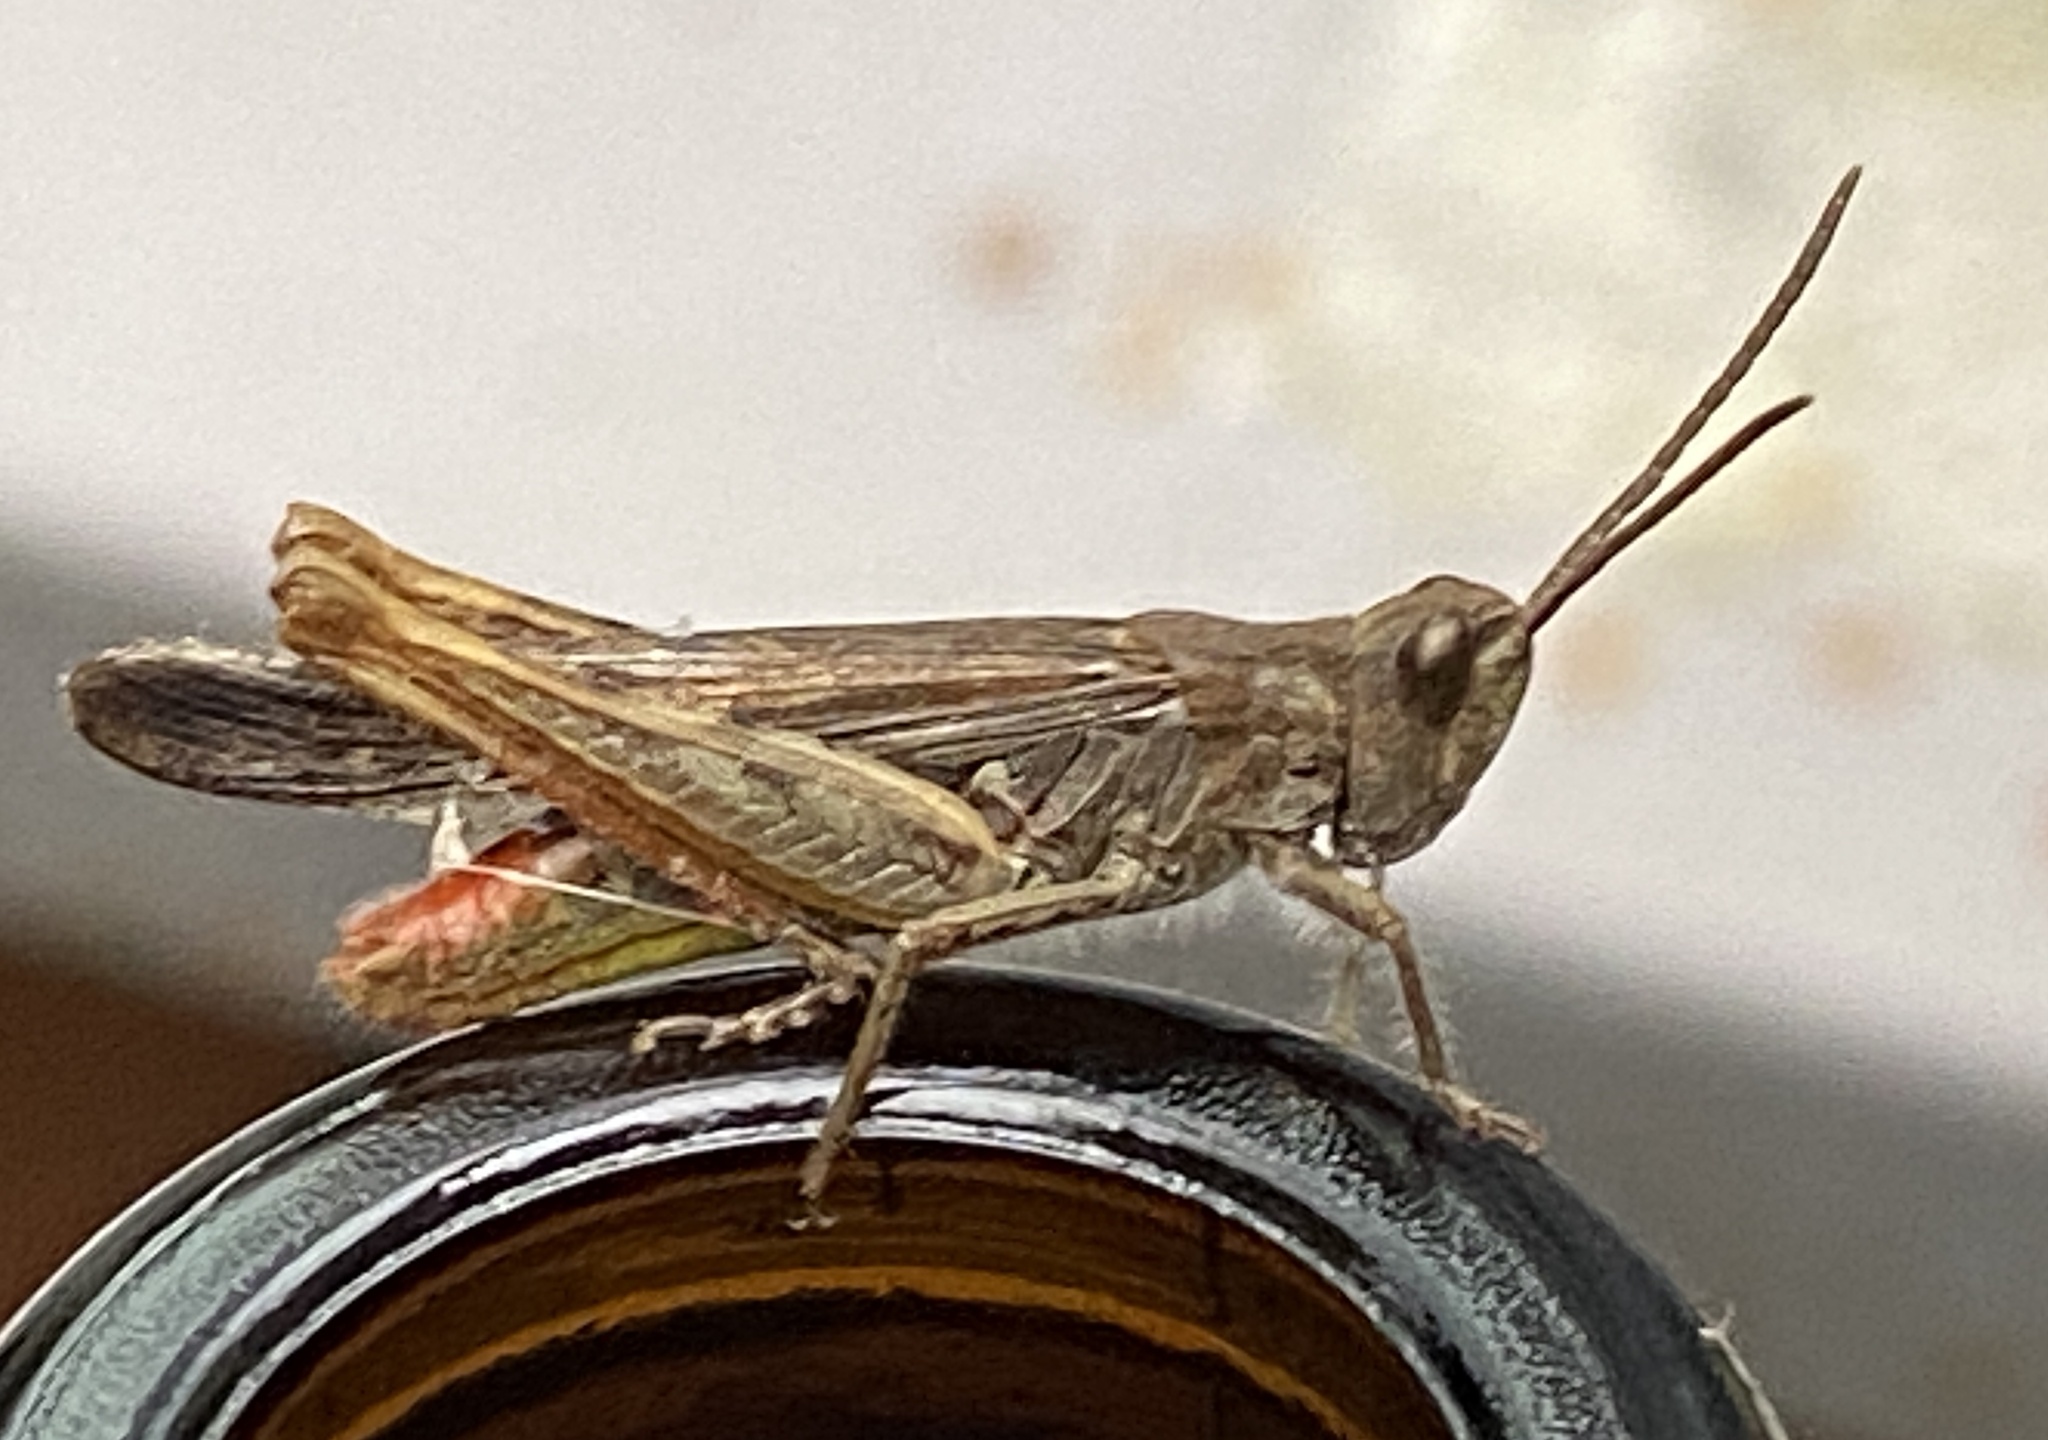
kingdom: Animalia
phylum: Arthropoda
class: Insecta
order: Orthoptera
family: Acrididae
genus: Chorthippus
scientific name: Chorthippus brunneus
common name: Field grasshopper
